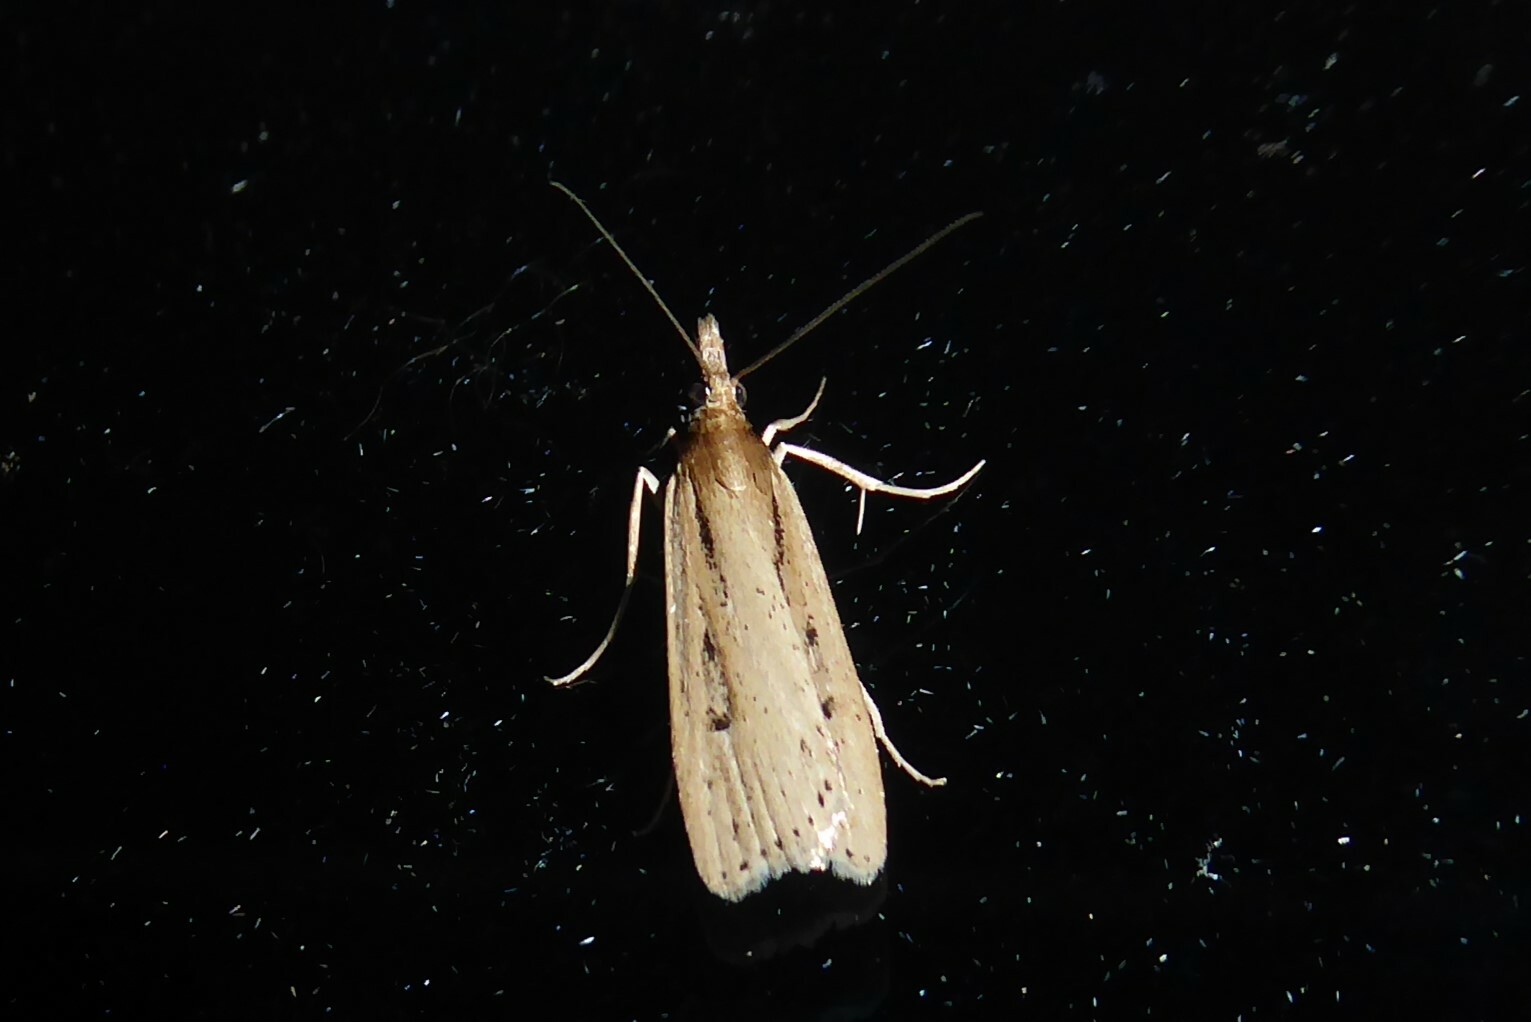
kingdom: Animalia
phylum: Arthropoda
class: Insecta
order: Lepidoptera
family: Crambidae
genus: Eudonia
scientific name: Eudonia sabulosella
